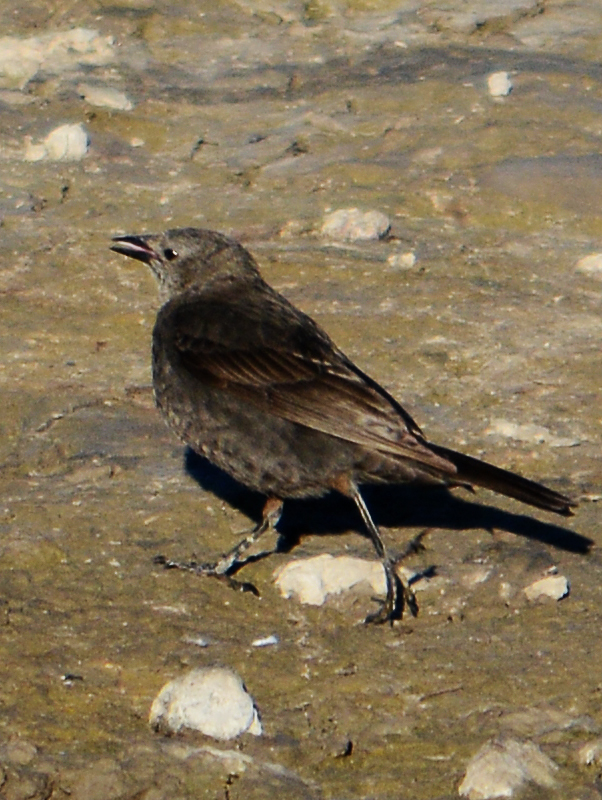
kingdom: Animalia
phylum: Chordata
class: Aves
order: Passeriformes
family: Icteridae
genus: Euphagus
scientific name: Euphagus cyanocephalus
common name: Brewer's blackbird
